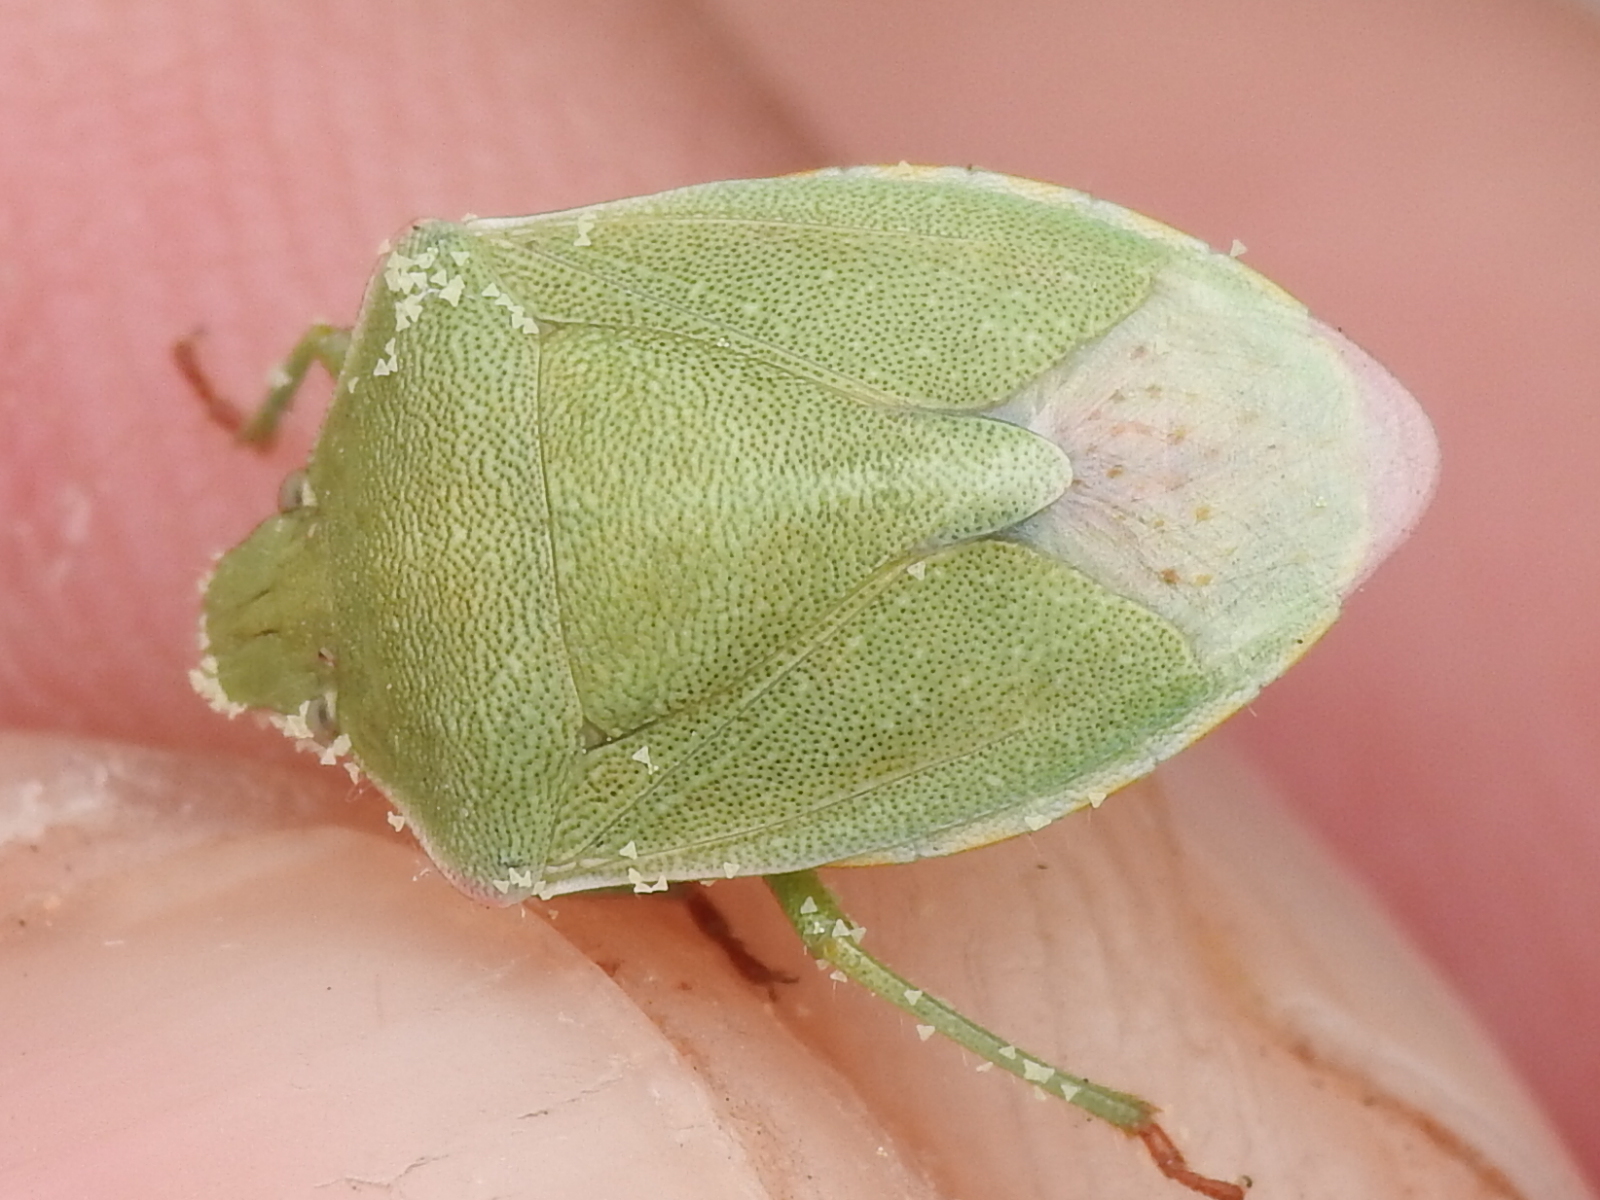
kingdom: Animalia
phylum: Arthropoda
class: Insecta
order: Hemiptera
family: Pentatomidae
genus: Thyanta
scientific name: Thyanta accerra
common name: Stink bug
